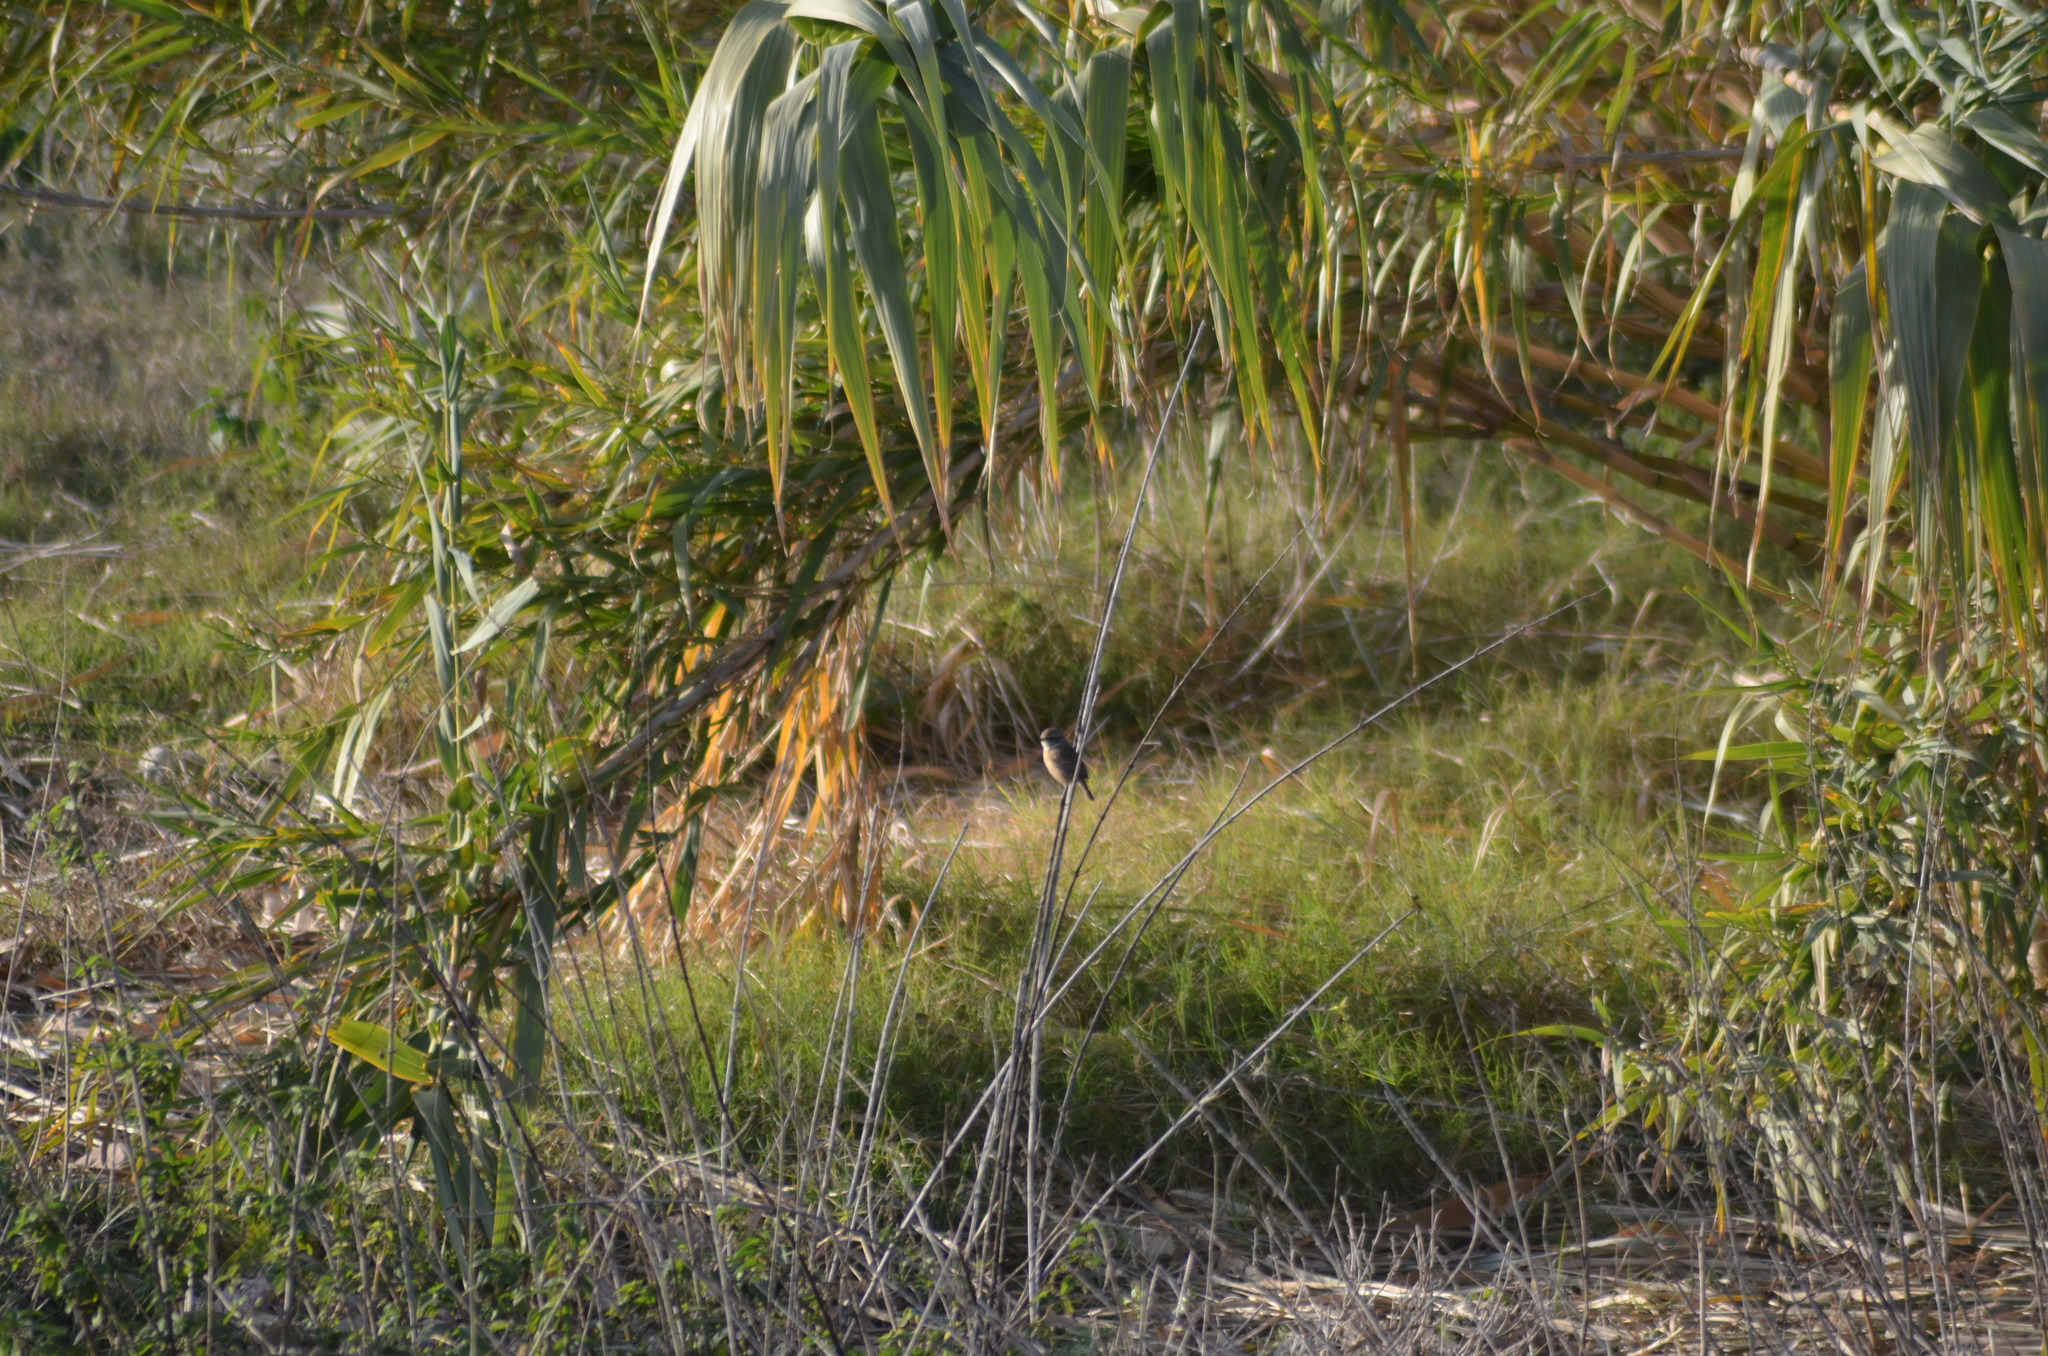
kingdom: Animalia
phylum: Chordata
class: Aves
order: Passeriformes
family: Muscicapidae
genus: Saxicola
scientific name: Saxicola rubicola
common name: European stonechat
